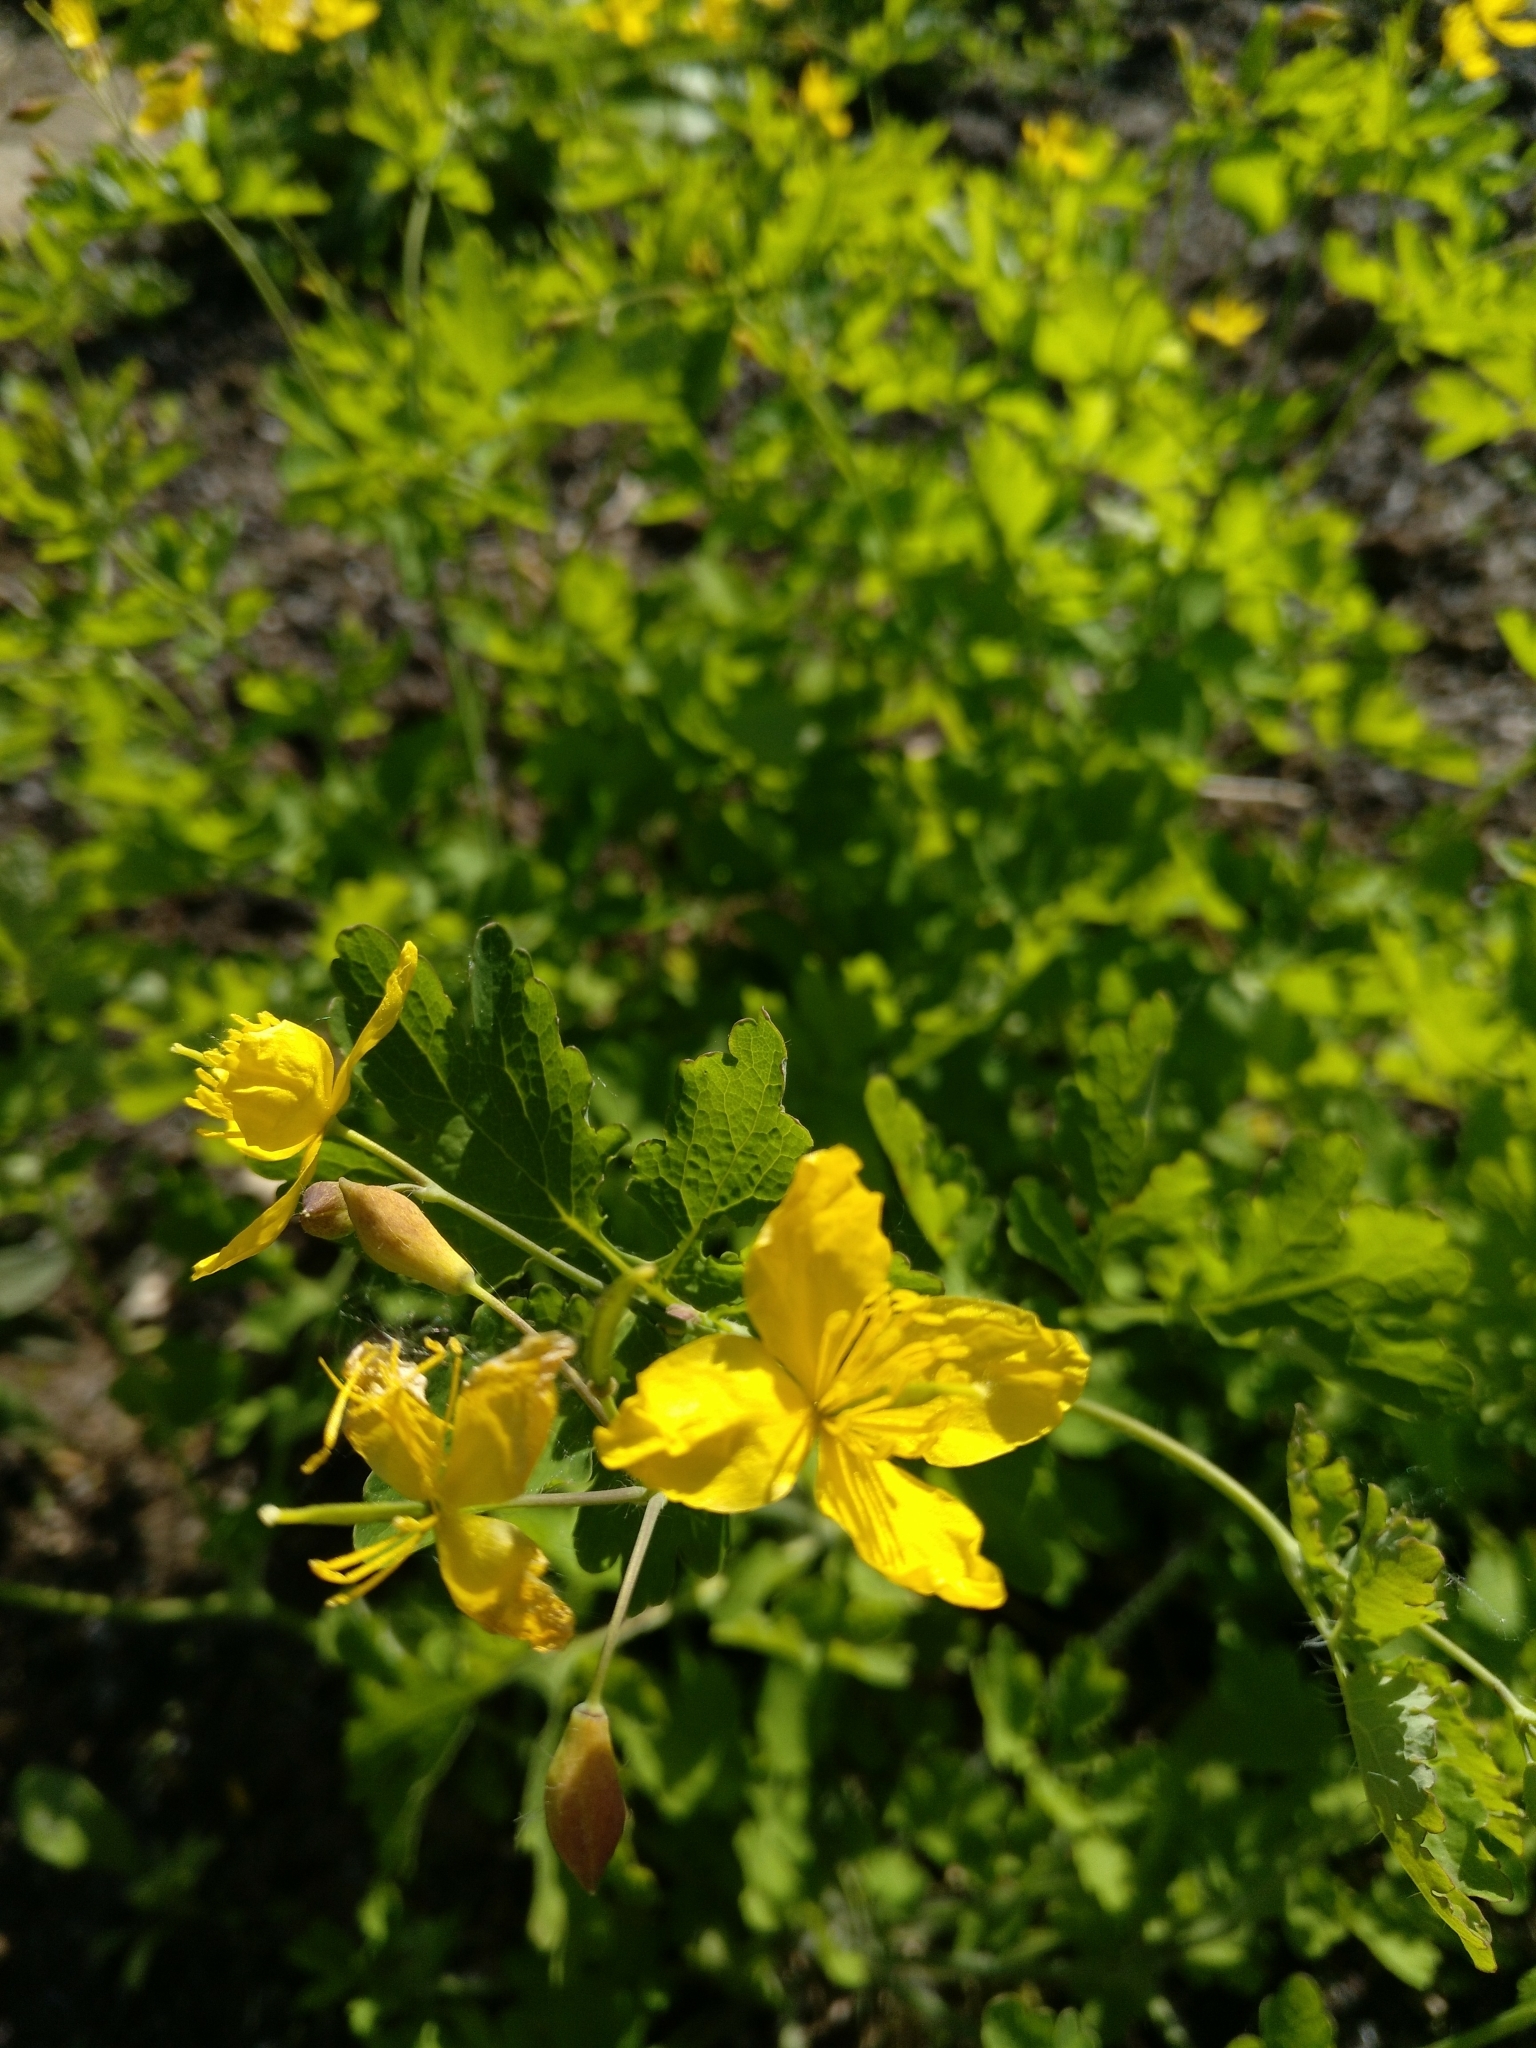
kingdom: Plantae
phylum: Tracheophyta
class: Magnoliopsida
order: Ranunculales
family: Papaveraceae
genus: Chelidonium
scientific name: Chelidonium majus
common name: Greater celandine
